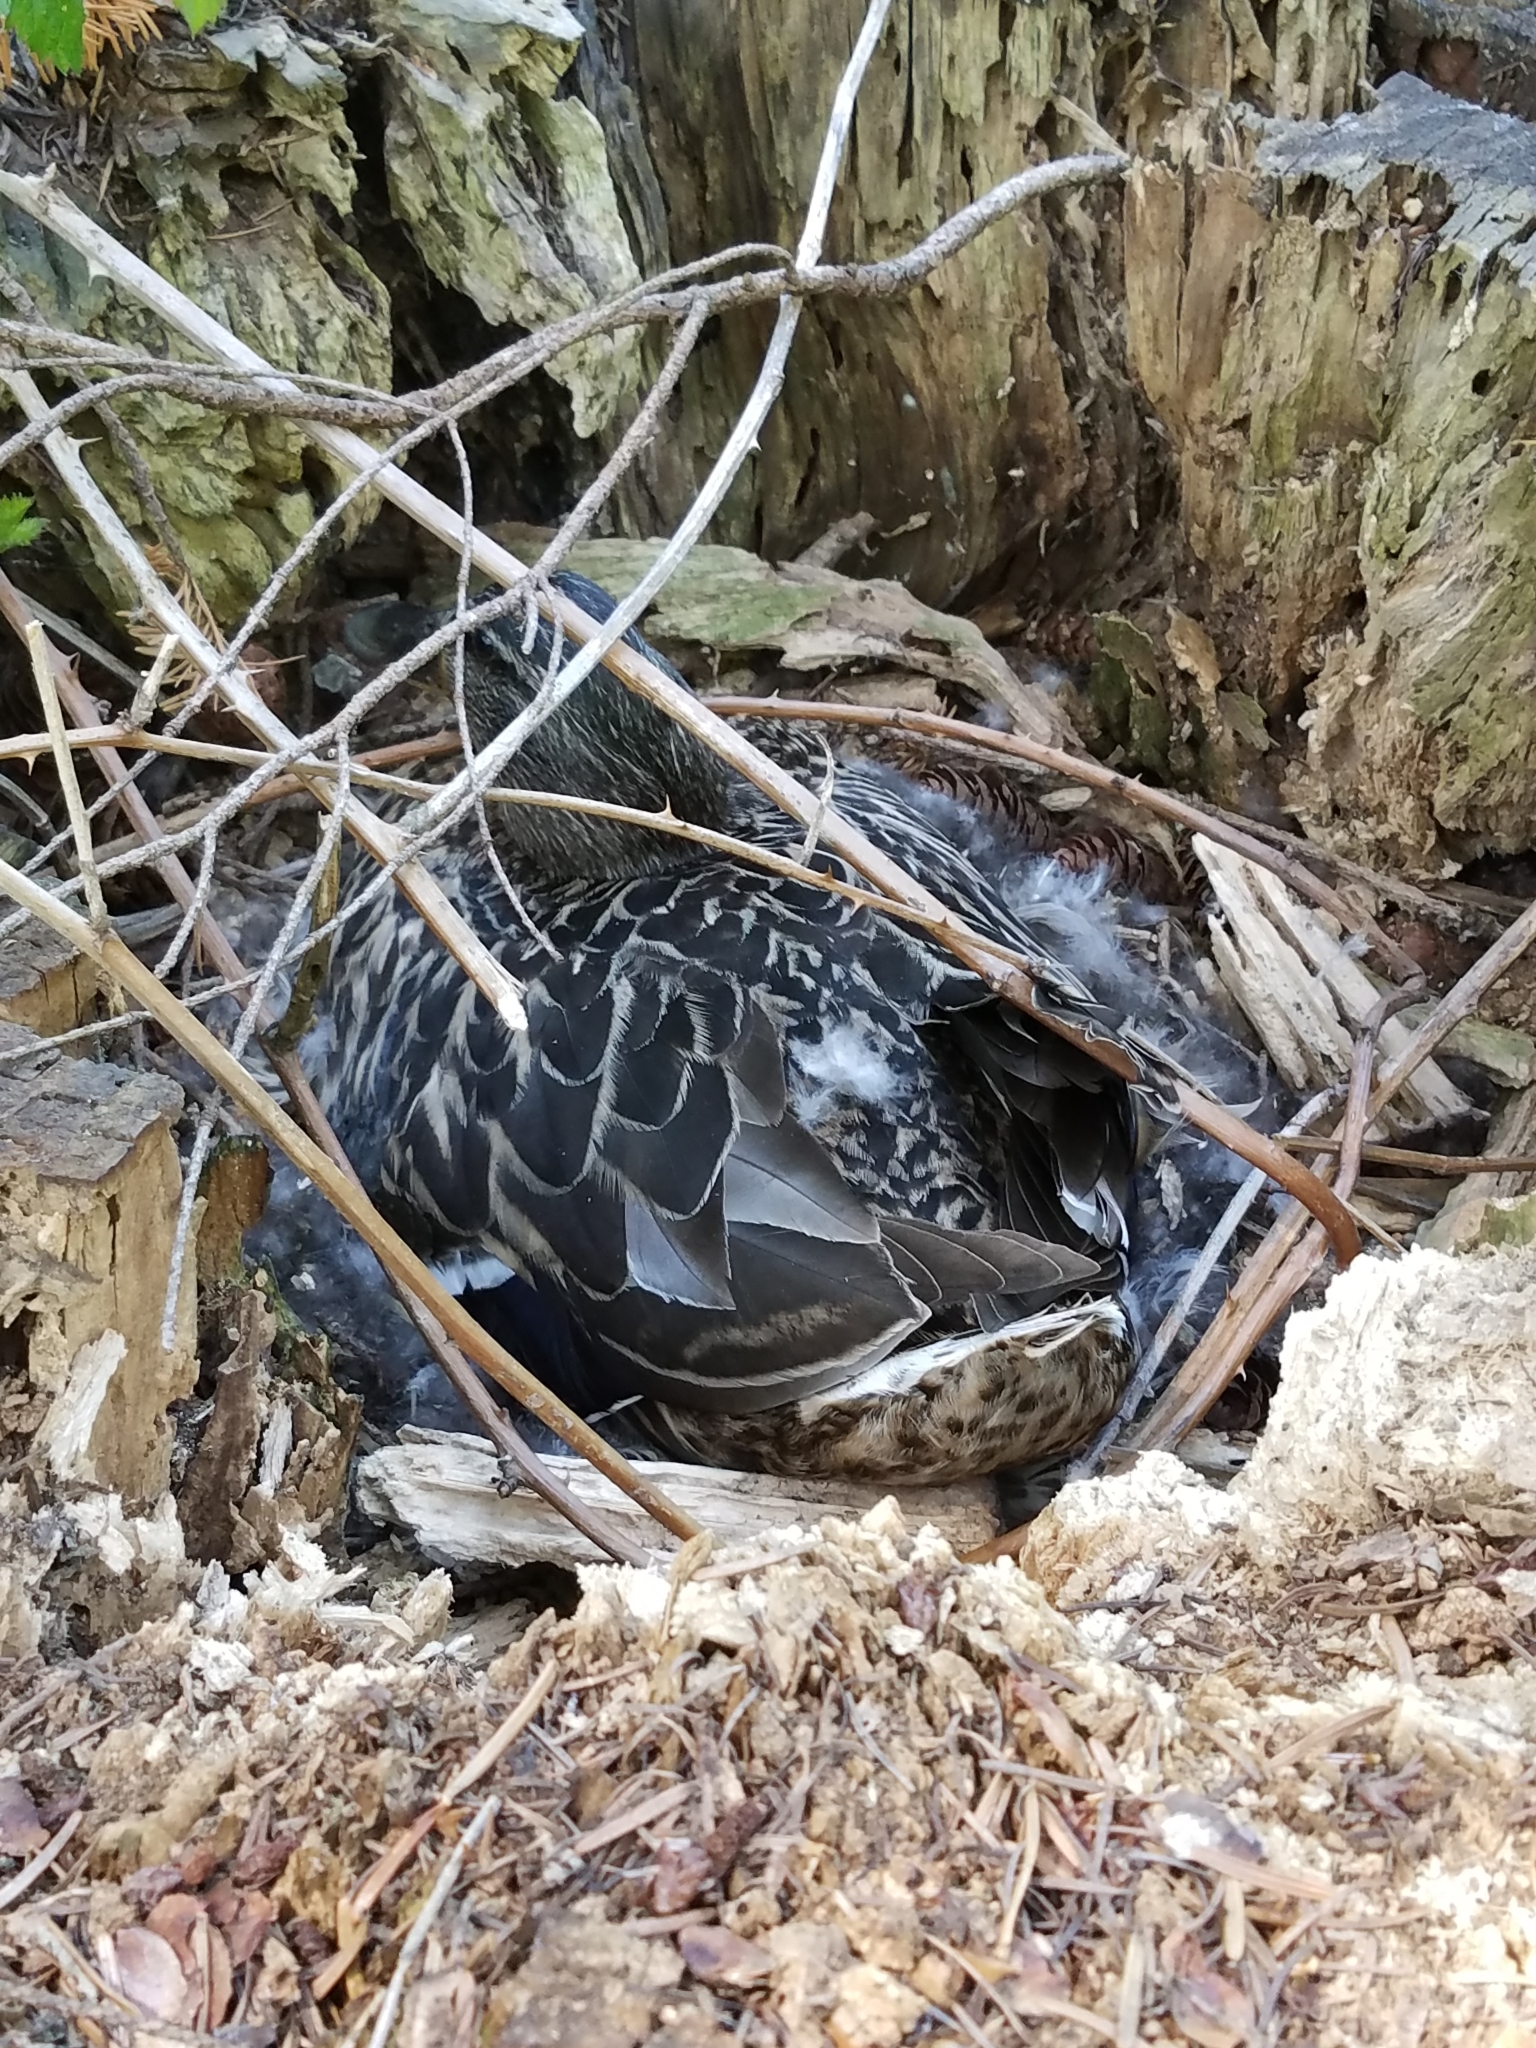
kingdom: Animalia
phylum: Chordata
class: Aves
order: Anseriformes
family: Anatidae
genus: Anas
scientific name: Anas platyrhynchos
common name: Mallard
